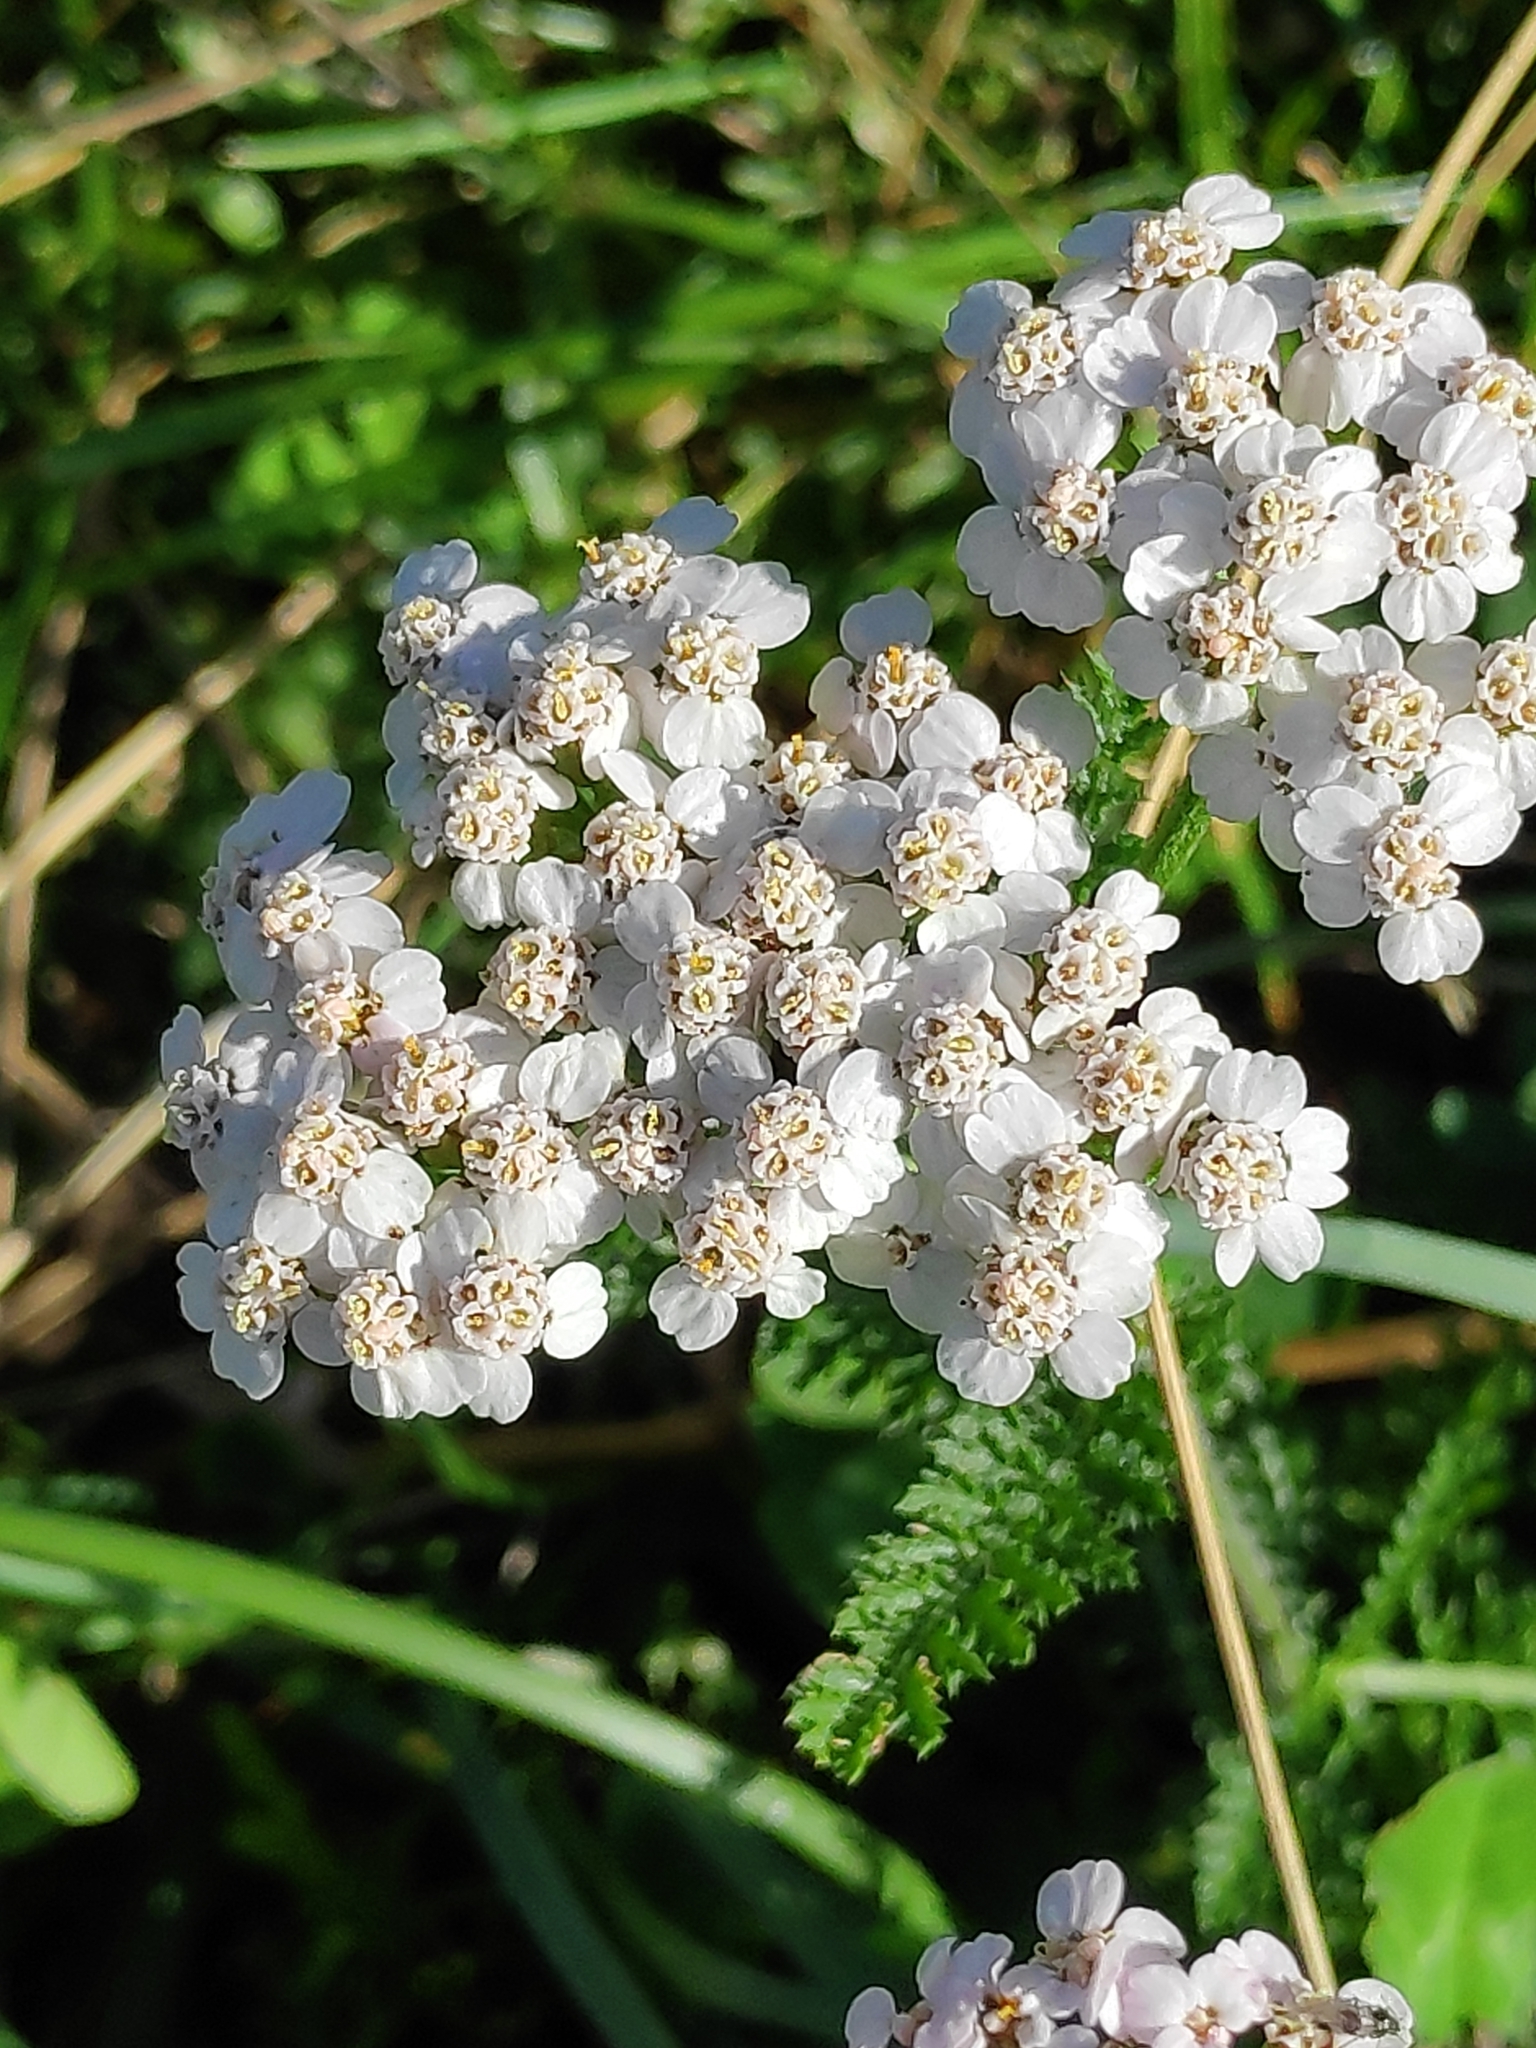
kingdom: Plantae
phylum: Tracheophyta
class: Magnoliopsida
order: Asterales
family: Asteraceae
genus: Achillea
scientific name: Achillea millefolium
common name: Yarrow
